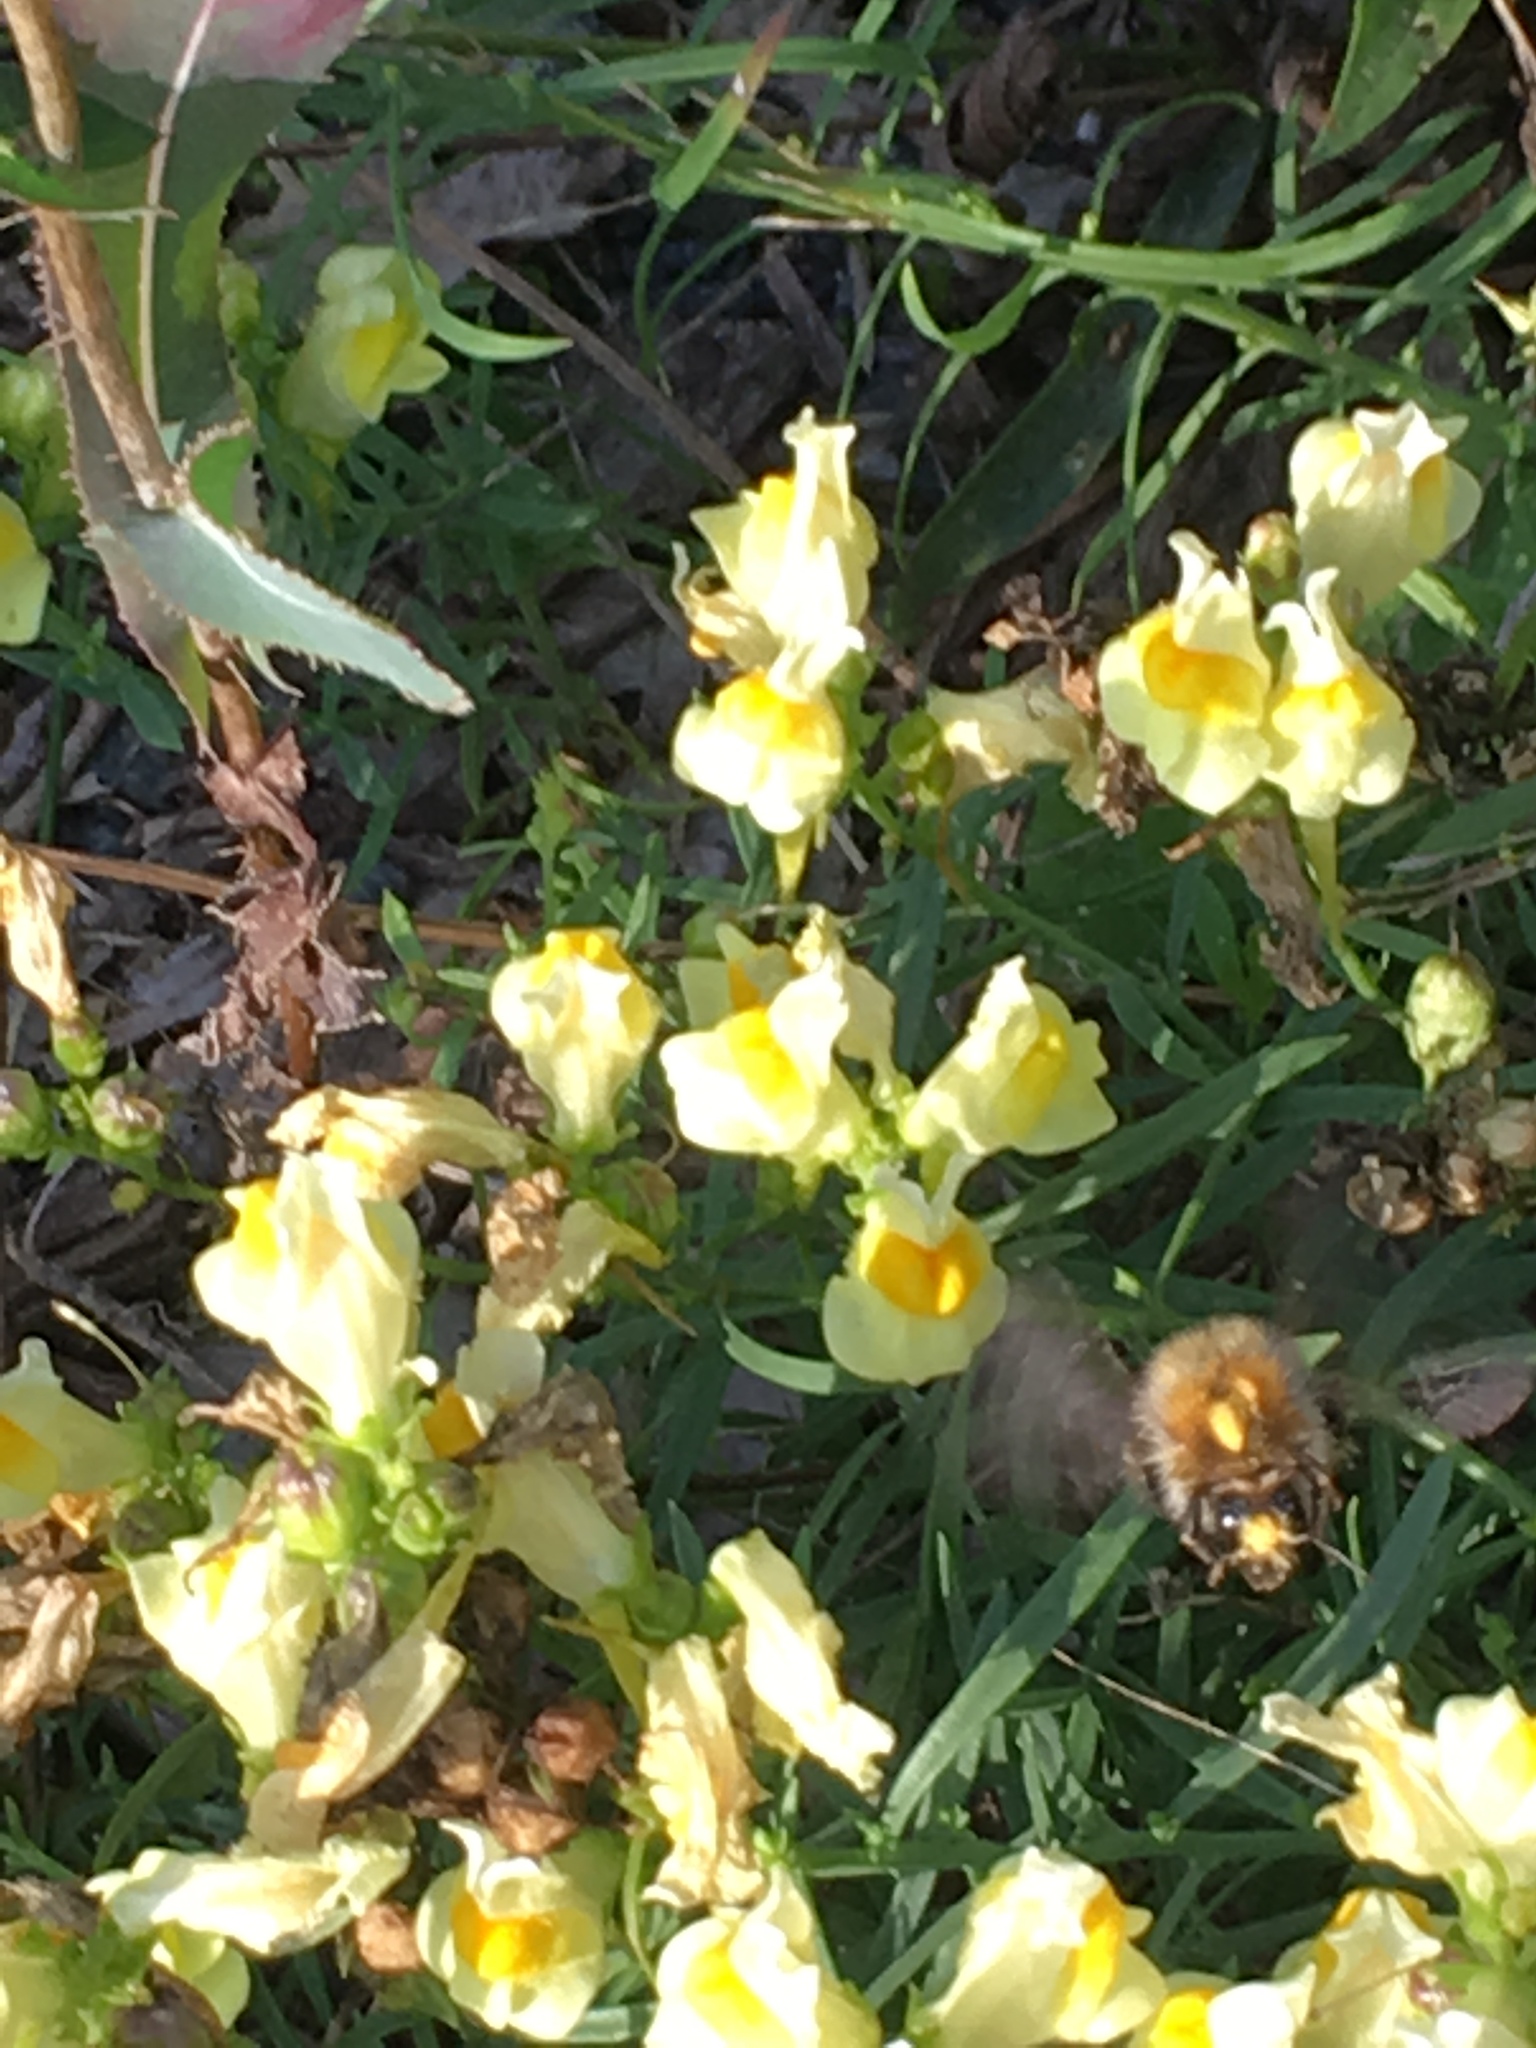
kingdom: Plantae
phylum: Tracheophyta
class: Magnoliopsida
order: Lamiales
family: Plantaginaceae
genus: Linaria
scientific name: Linaria vulgaris
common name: Butter and eggs
